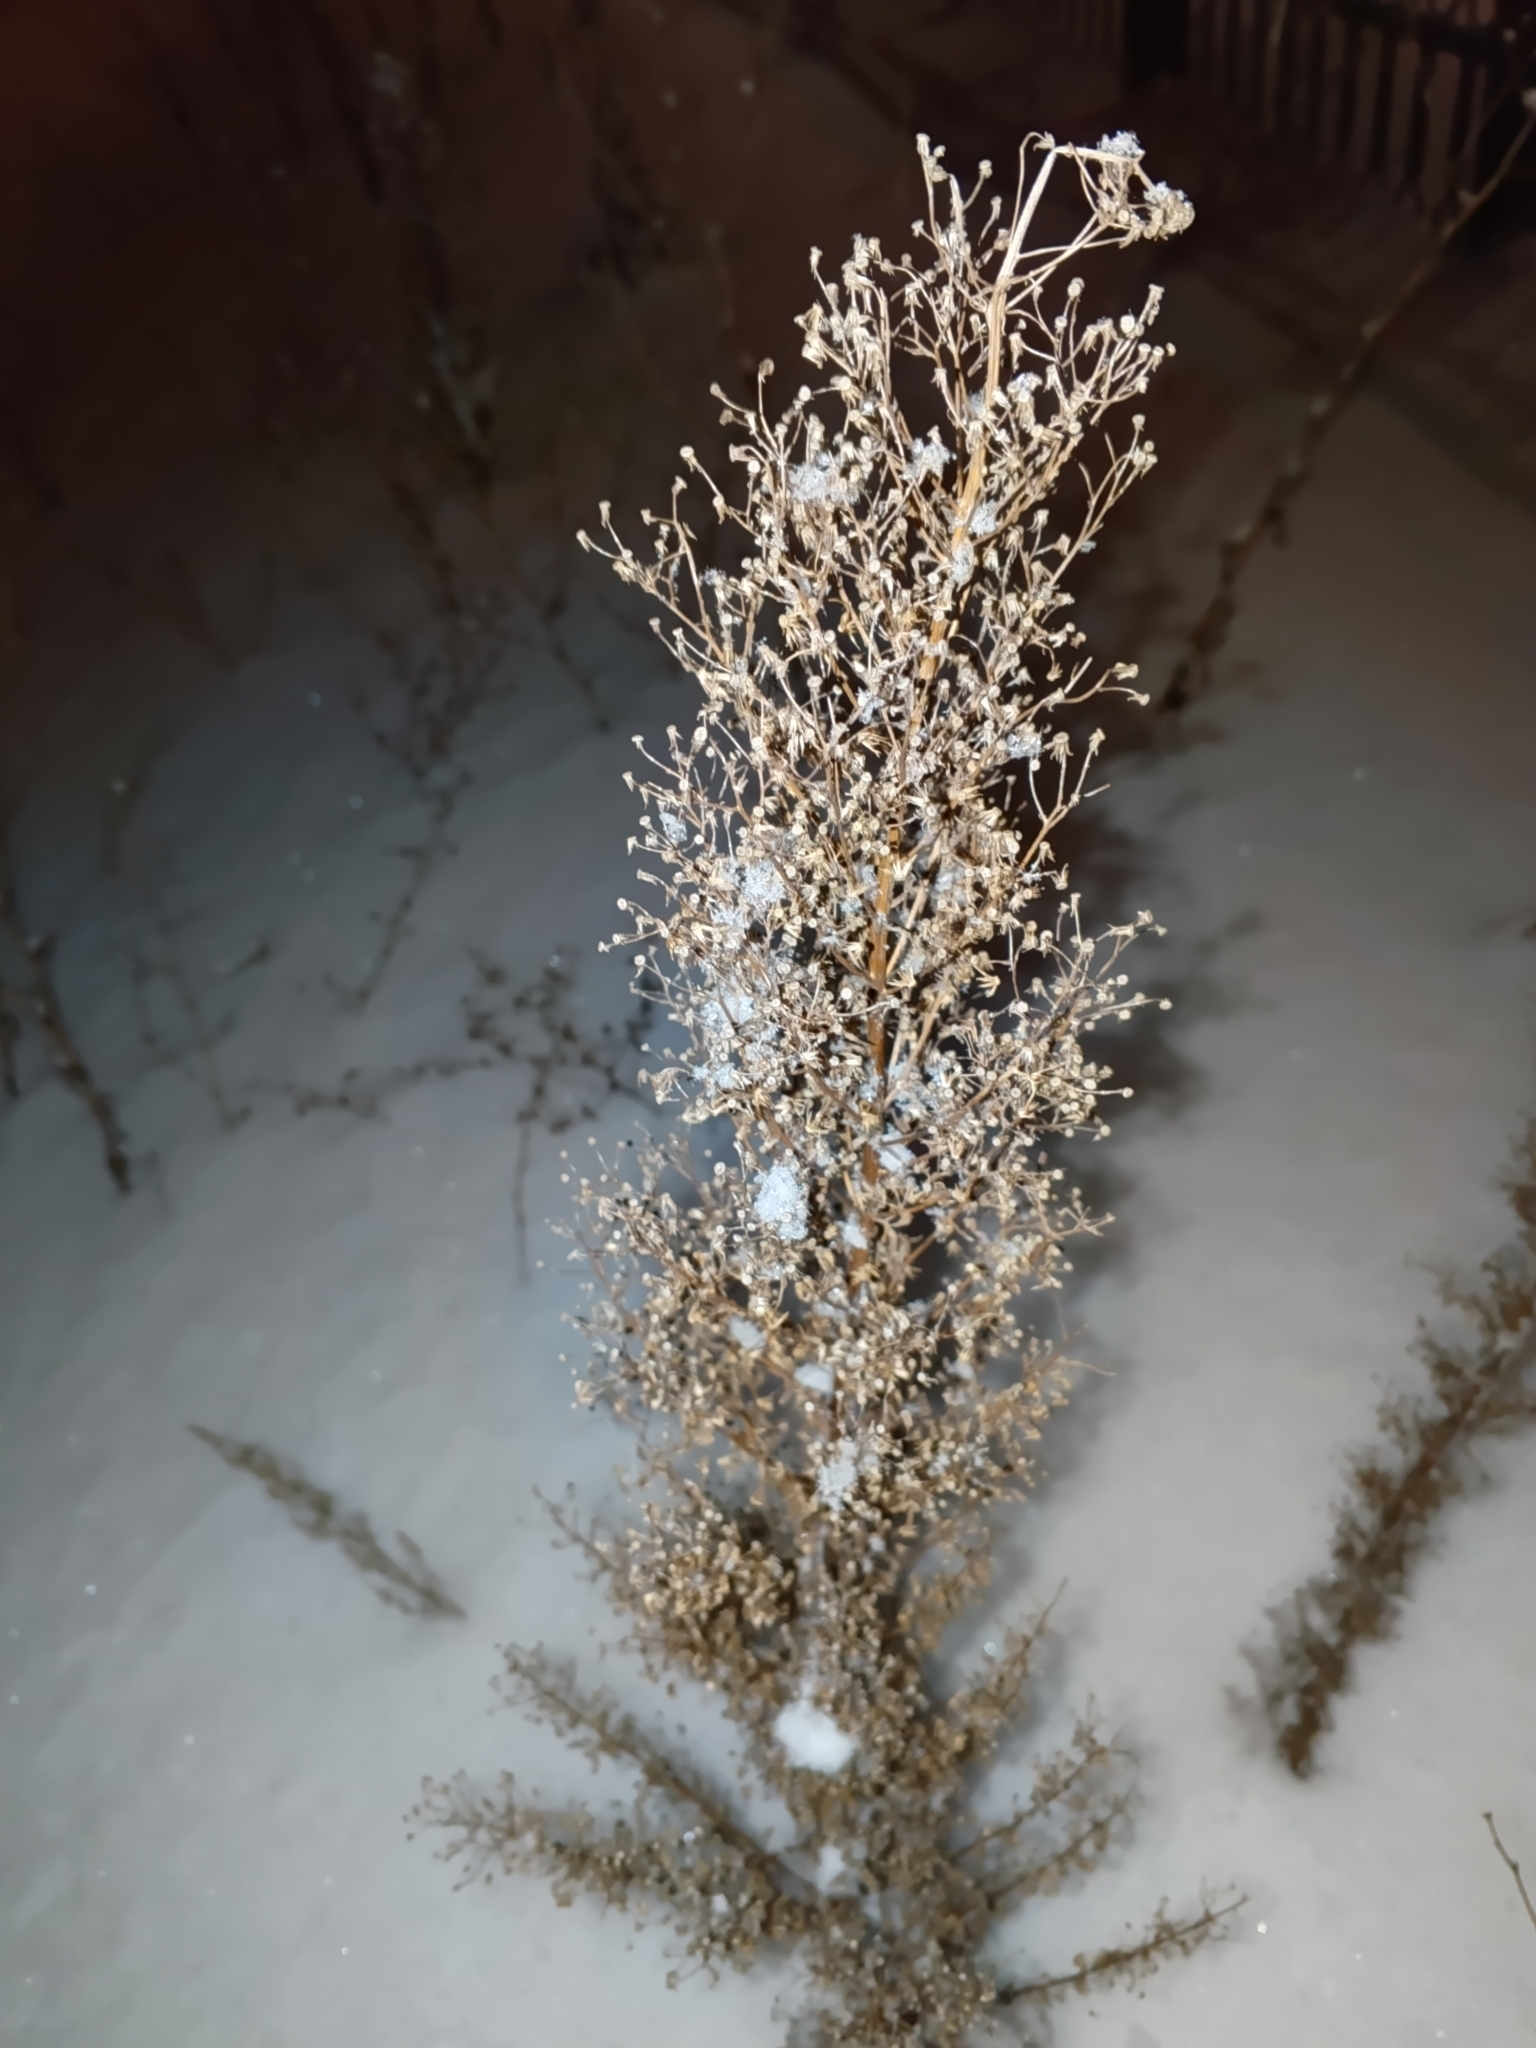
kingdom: Plantae
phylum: Tracheophyta
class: Magnoliopsida
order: Asterales
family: Asteraceae
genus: Erigeron
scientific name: Erigeron canadensis
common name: Canadian fleabane
